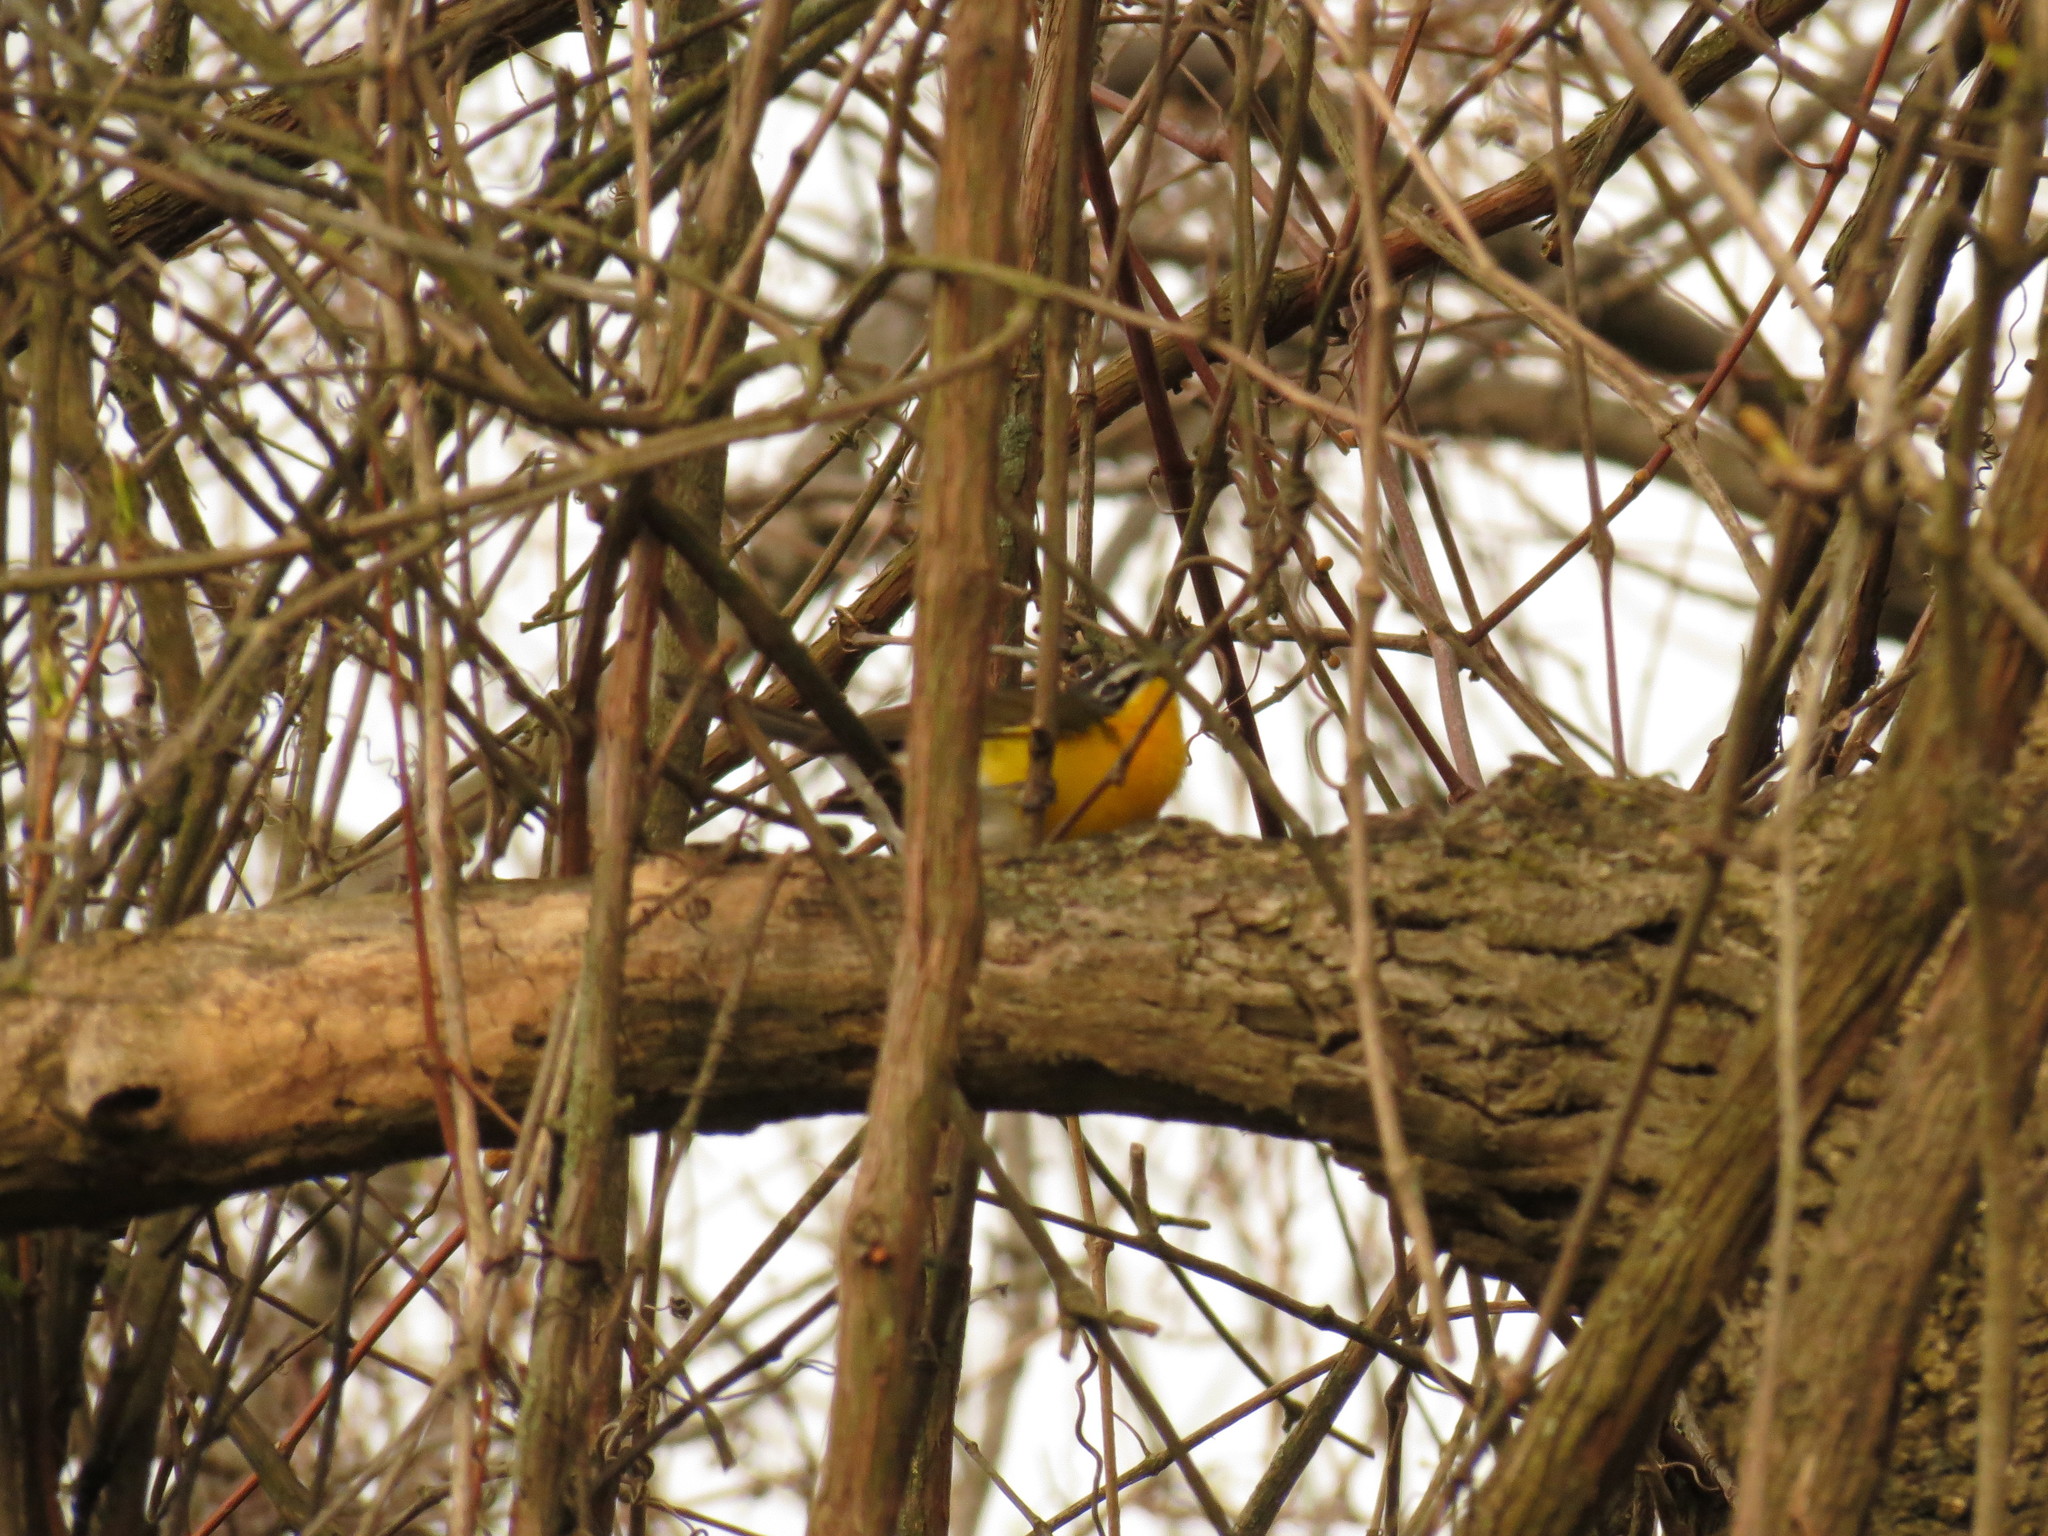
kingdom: Animalia
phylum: Chordata
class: Aves
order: Passeriformes
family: Parulidae
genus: Icteria
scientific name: Icteria virens
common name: Yellow-breasted chat
